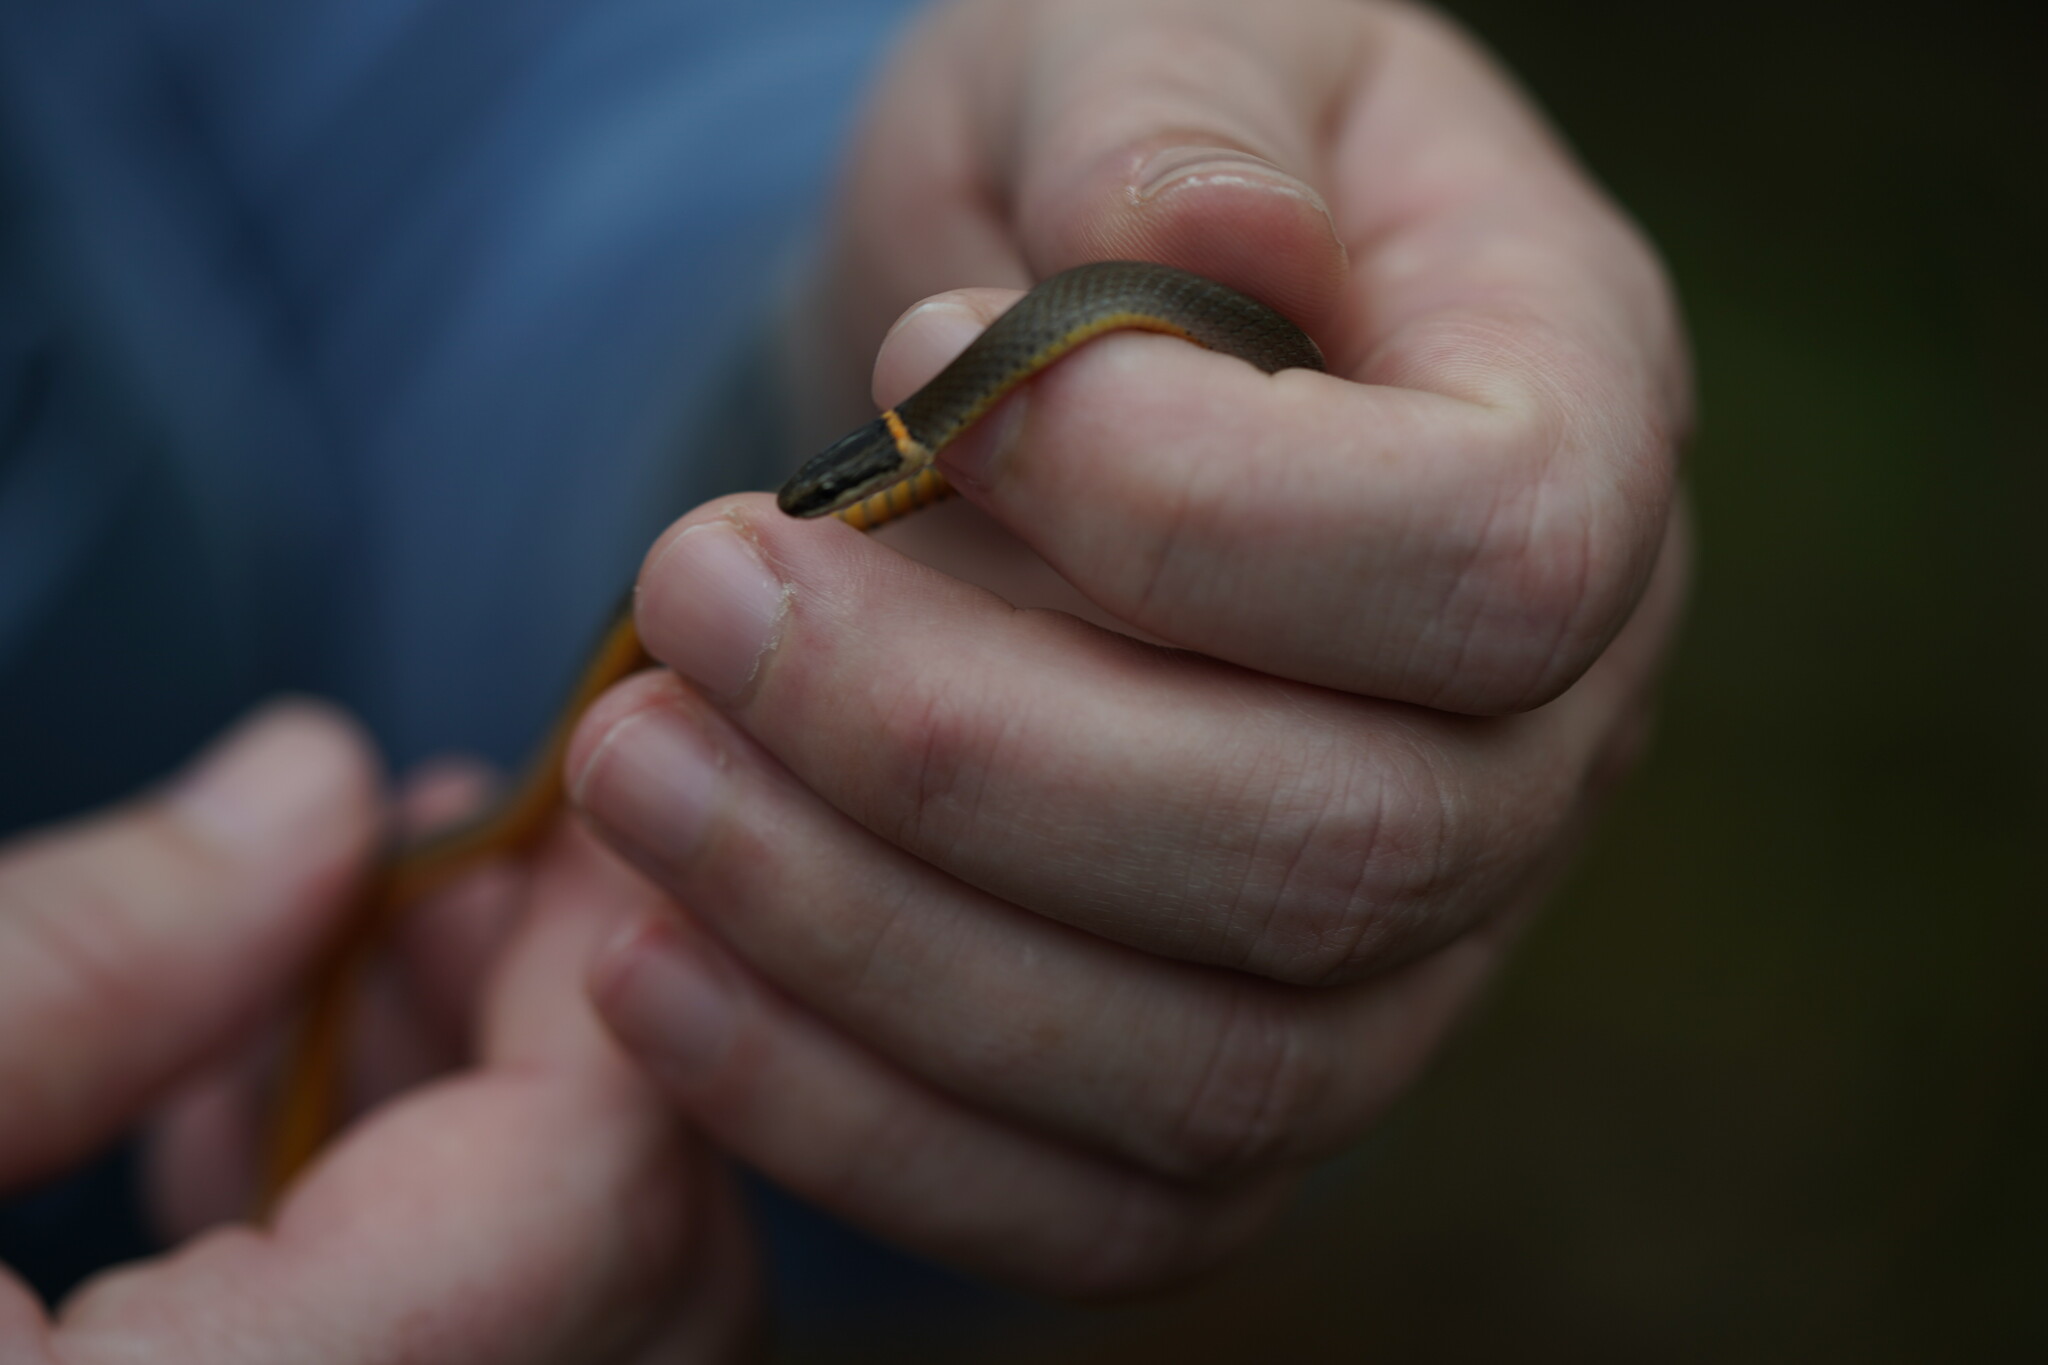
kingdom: Animalia
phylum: Chordata
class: Squamata
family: Colubridae
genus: Diadophis
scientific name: Diadophis punctatus
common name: Ringneck snake
